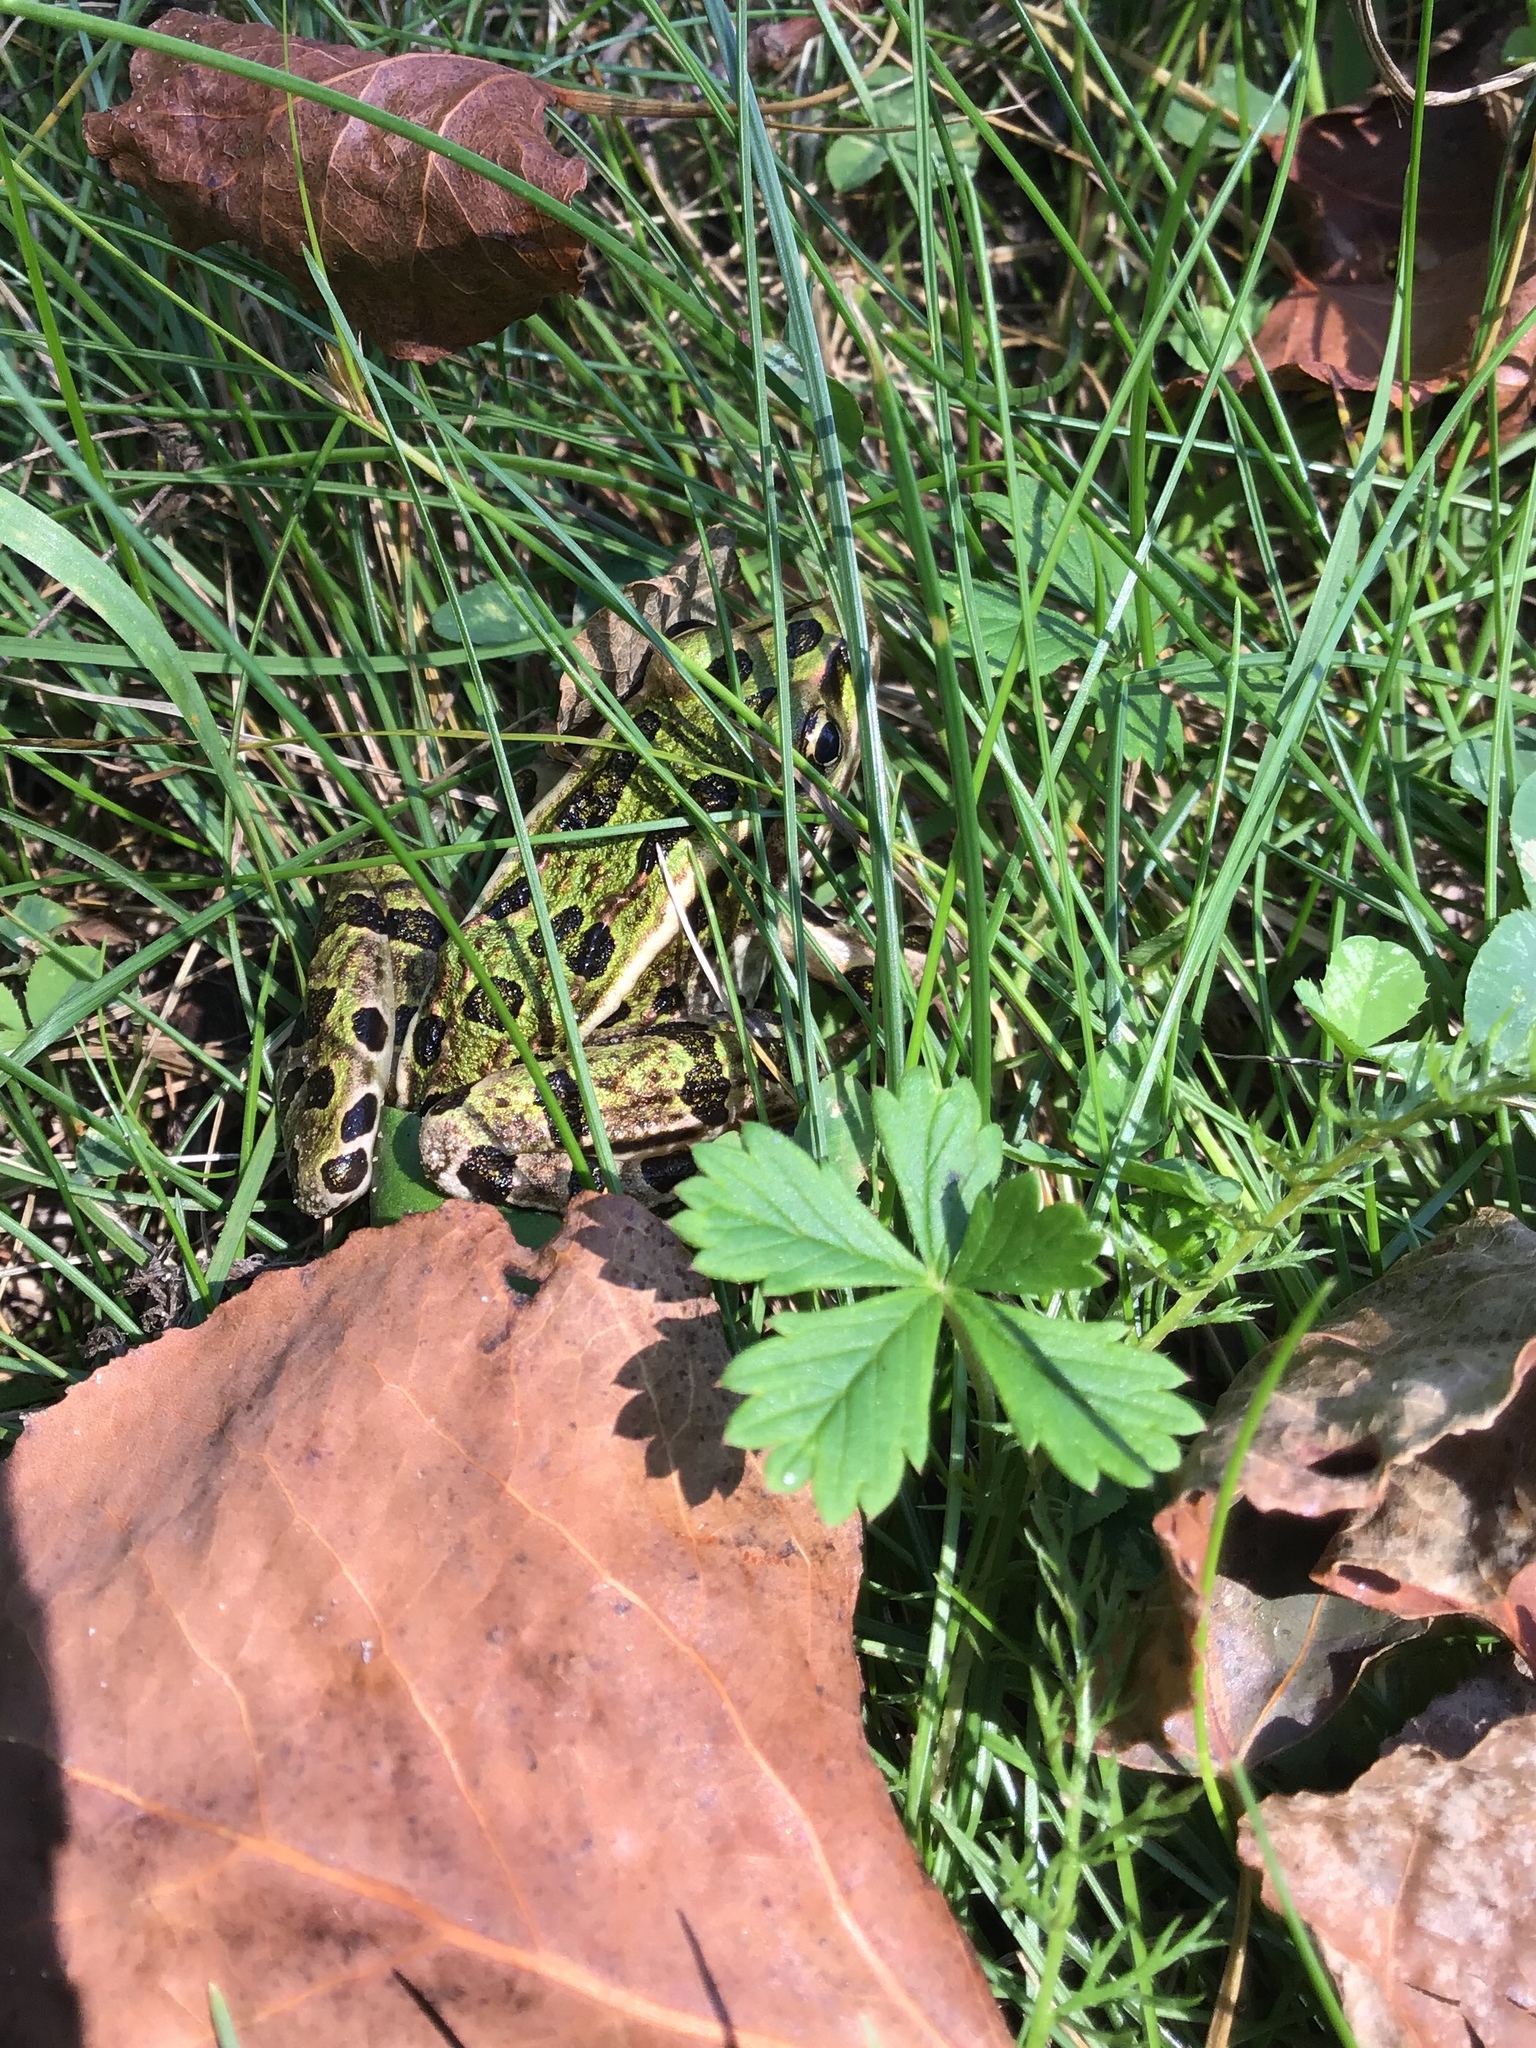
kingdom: Animalia
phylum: Chordata
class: Amphibia
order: Anura
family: Ranidae
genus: Lithobates
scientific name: Lithobates pipiens
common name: Northern leopard frog
